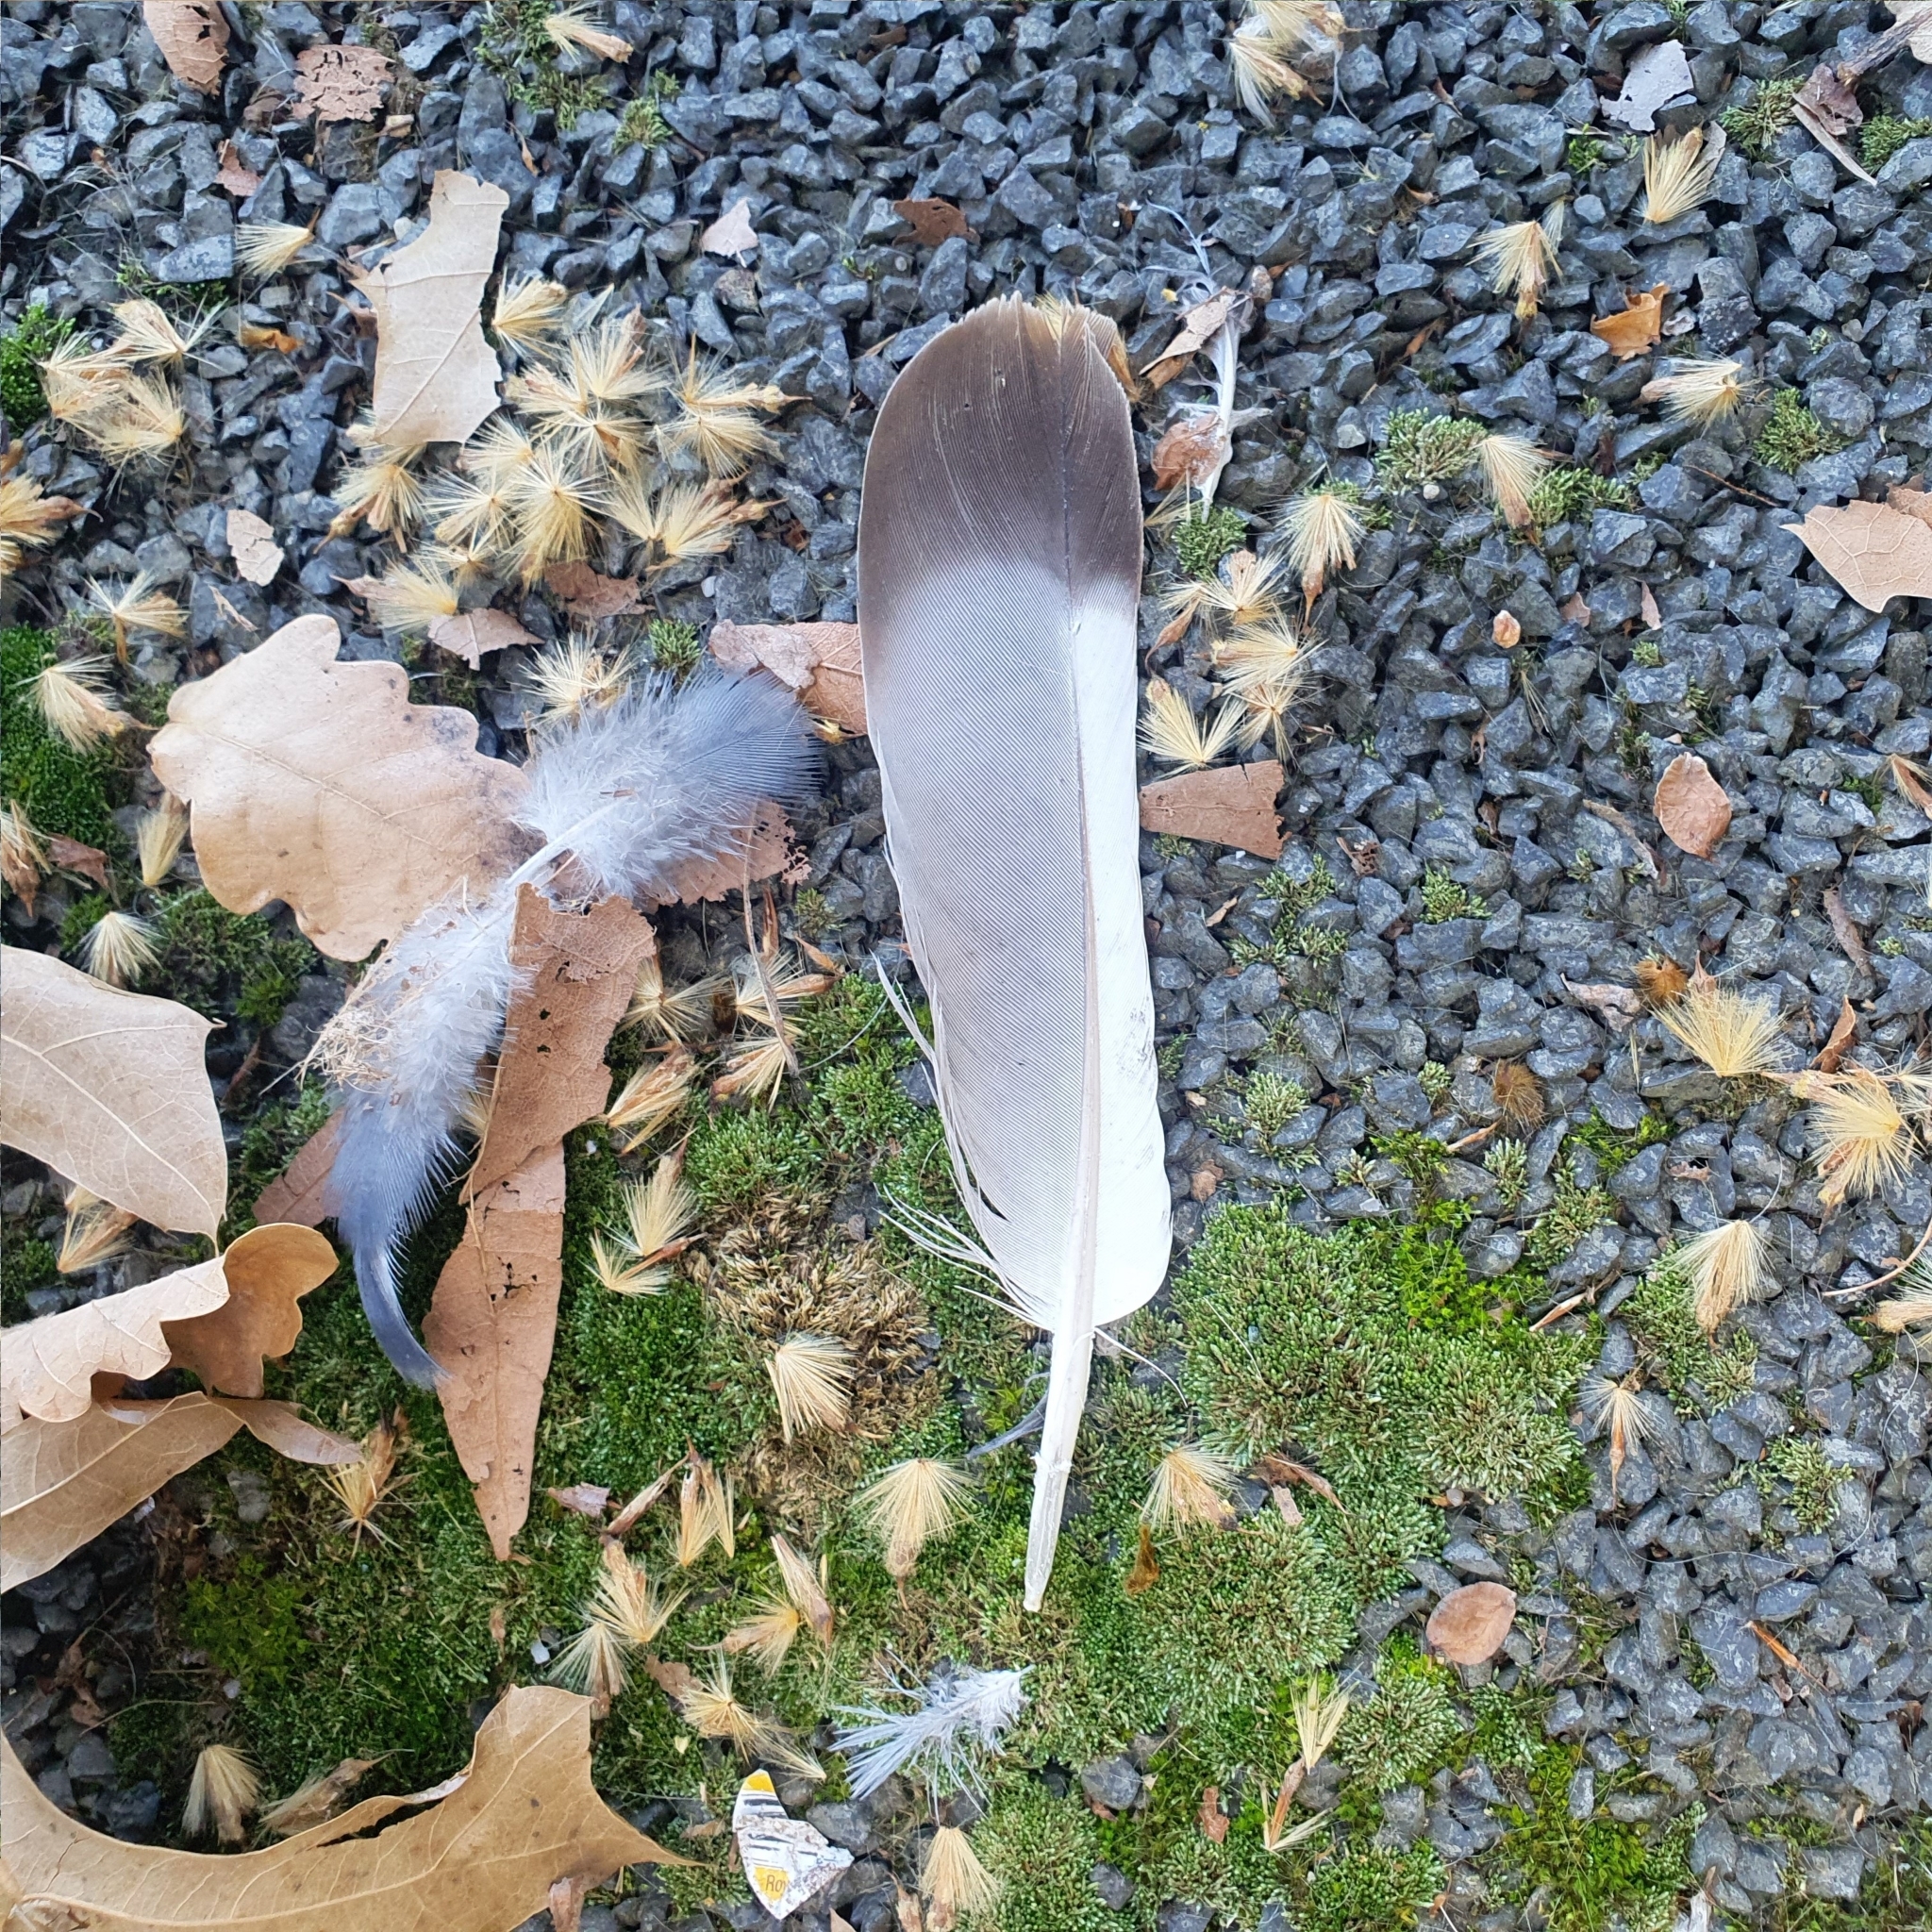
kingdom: Animalia
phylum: Chordata
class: Aves
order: Columbiformes
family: Columbidae
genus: Columba
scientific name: Columba livia
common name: Rock pigeon
